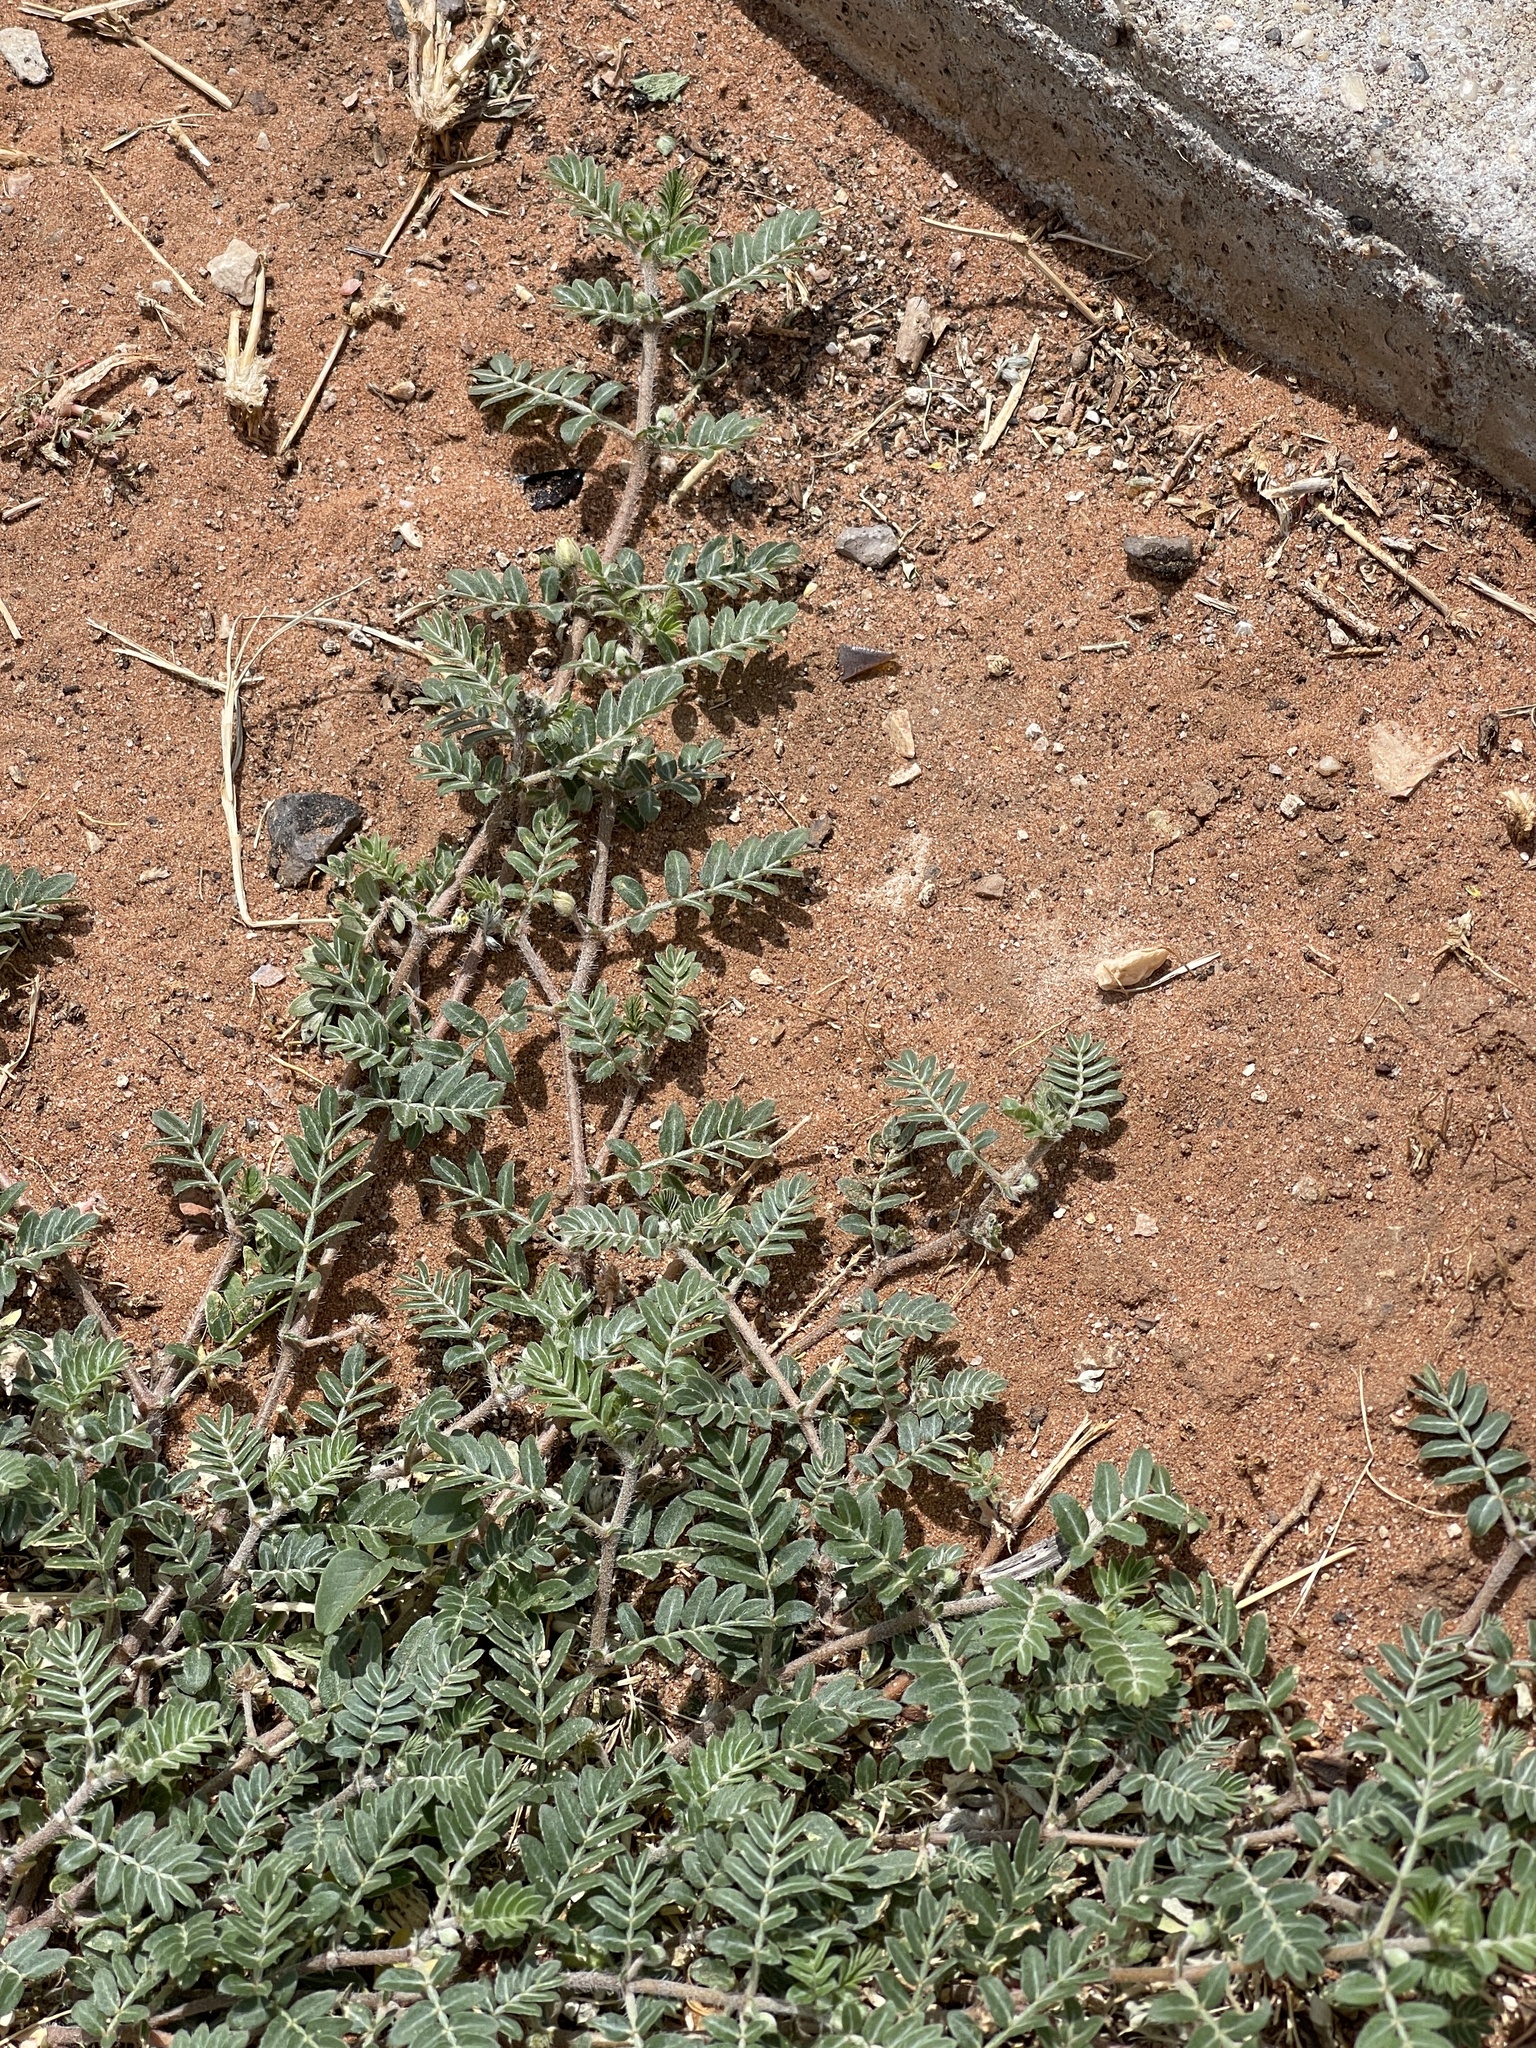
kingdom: Plantae
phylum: Tracheophyta
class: Magnoliopsida
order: Zygophyllales
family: Zygophyllaceae
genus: Tribulus
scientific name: Tribulus terrestris
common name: Puncturevine
